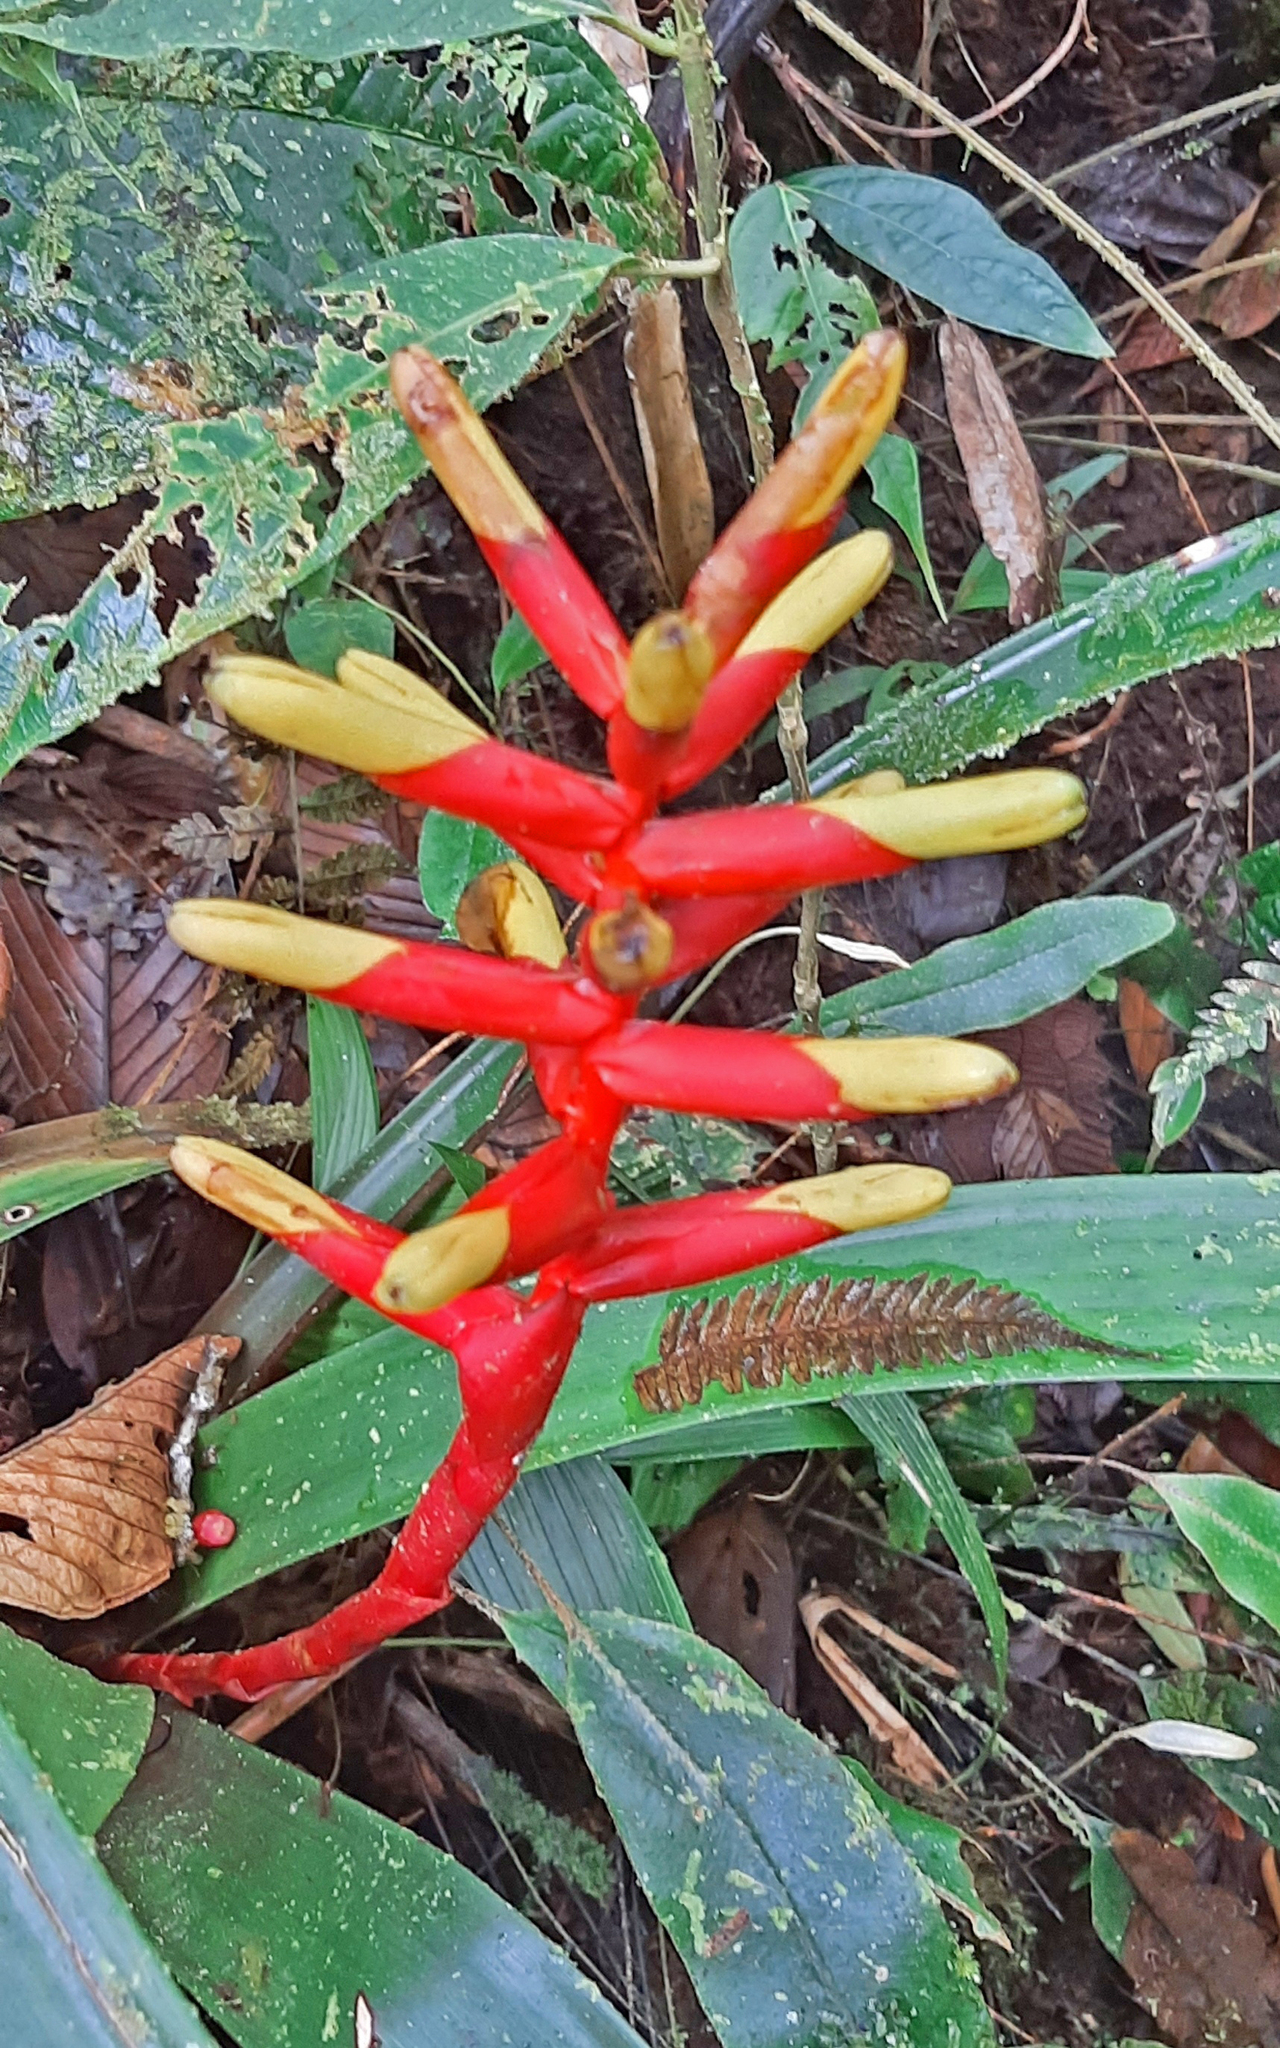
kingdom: Plantae
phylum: Tracheophyta
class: Liliopsida
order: Poales
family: Bromeliaceae
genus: Guzmania
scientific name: Guzmania sprucei
